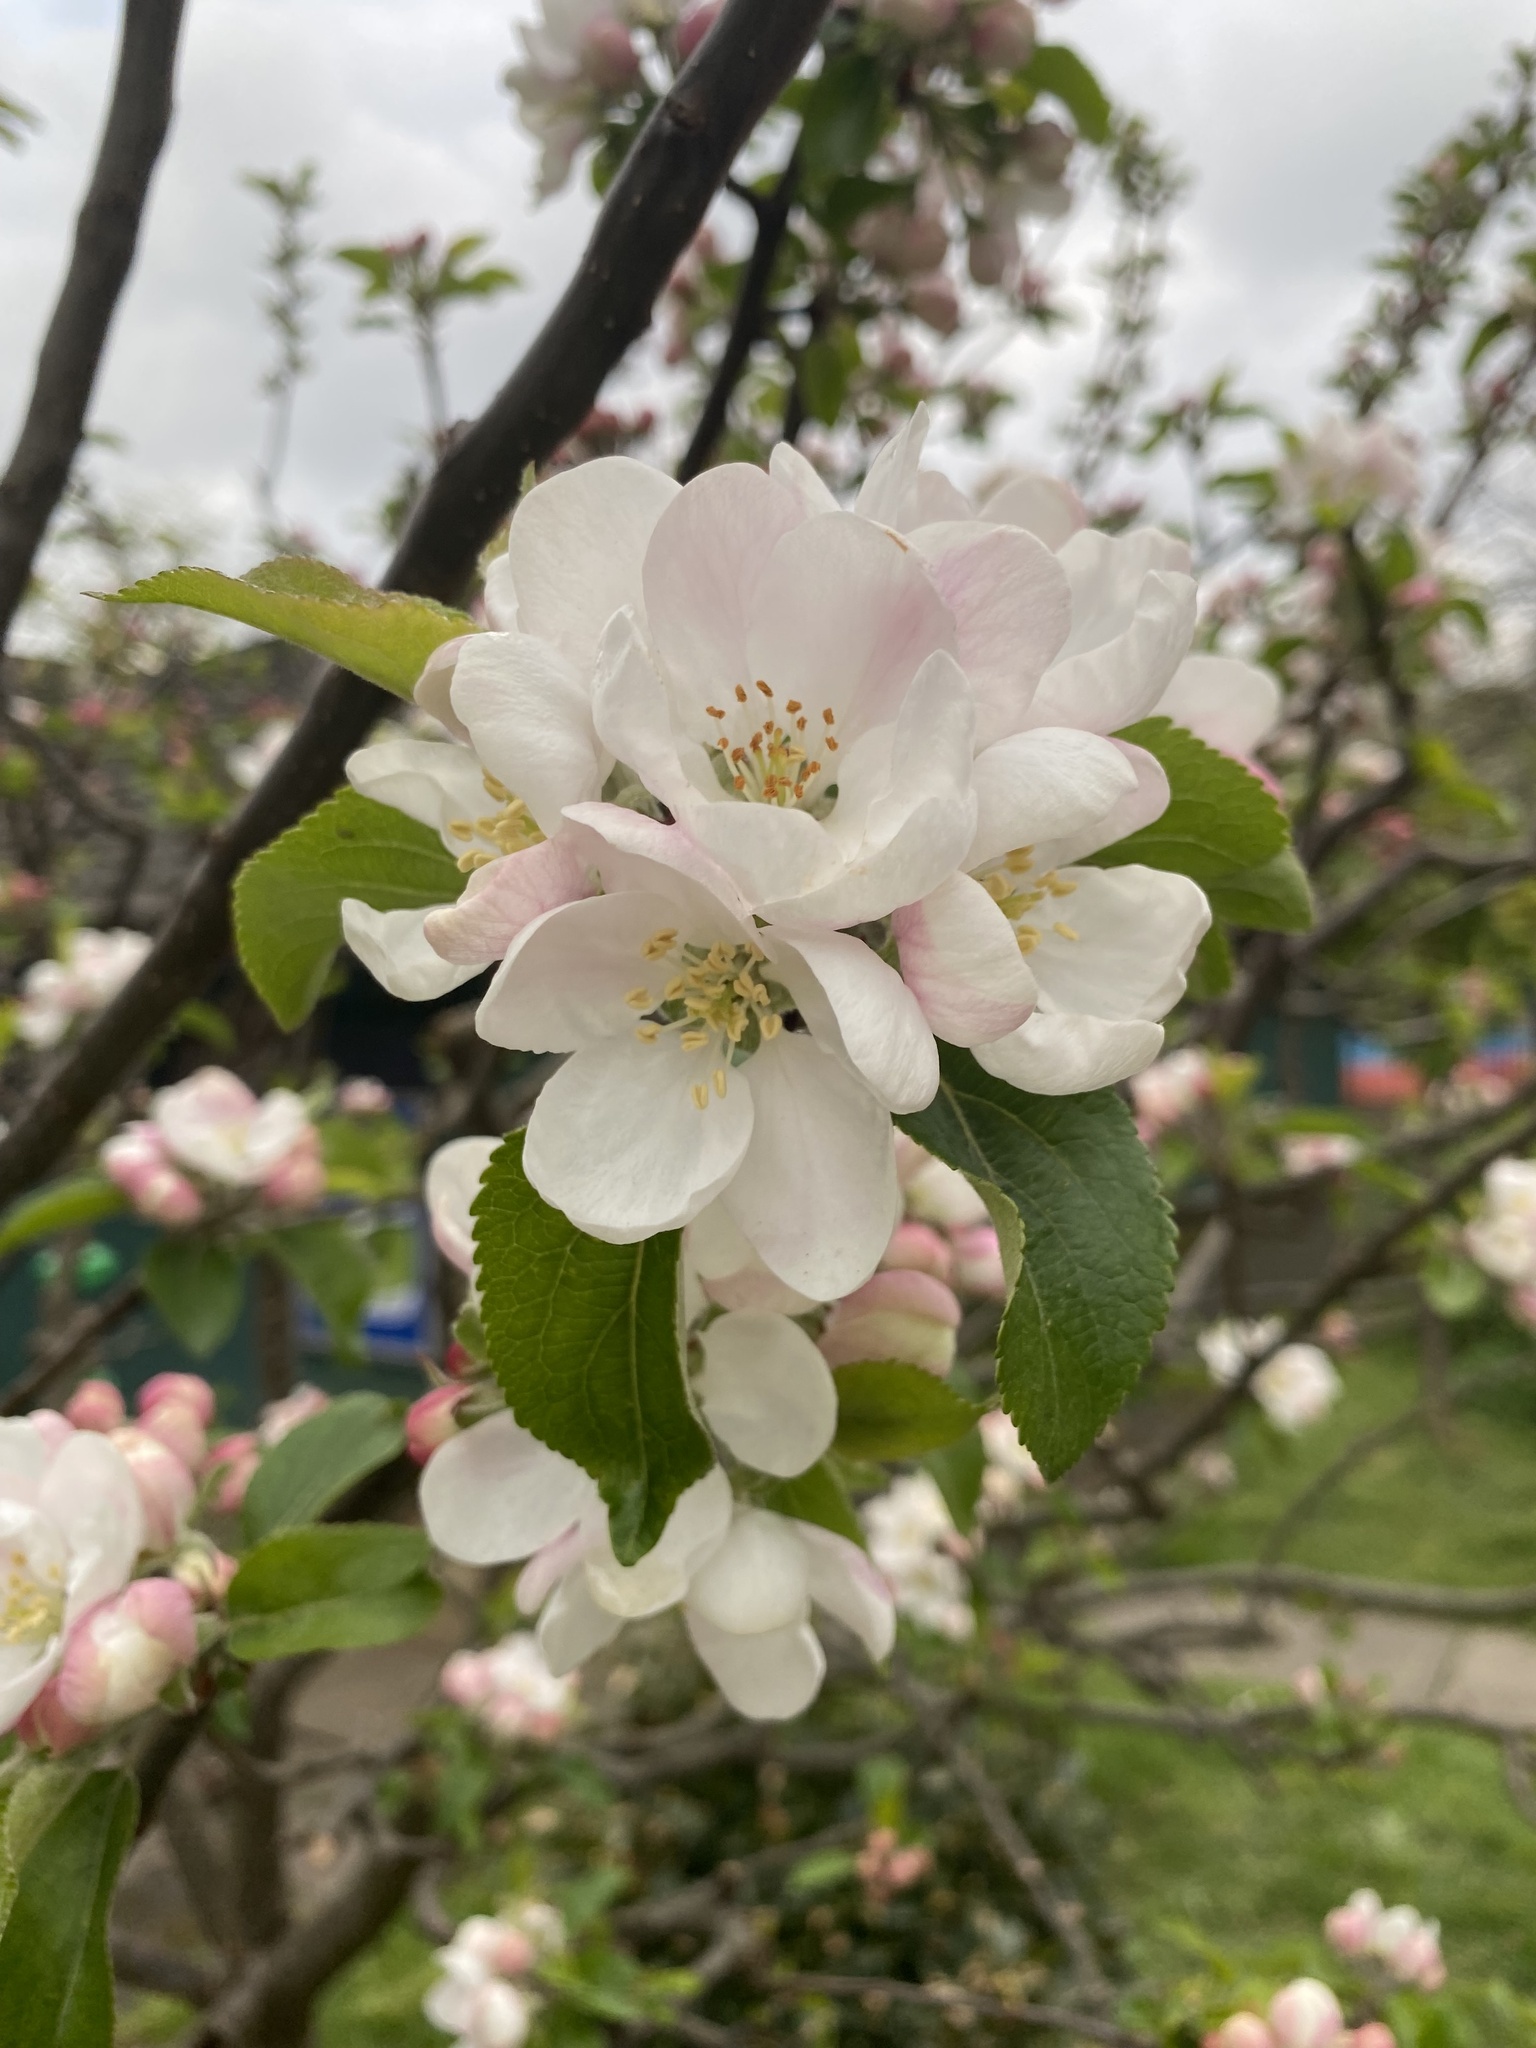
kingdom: Plantae
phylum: Tracheophyta
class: Magnoliopsida
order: Rosales
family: Rosaceae
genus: Malus
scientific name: Malus domestica
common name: Apple
